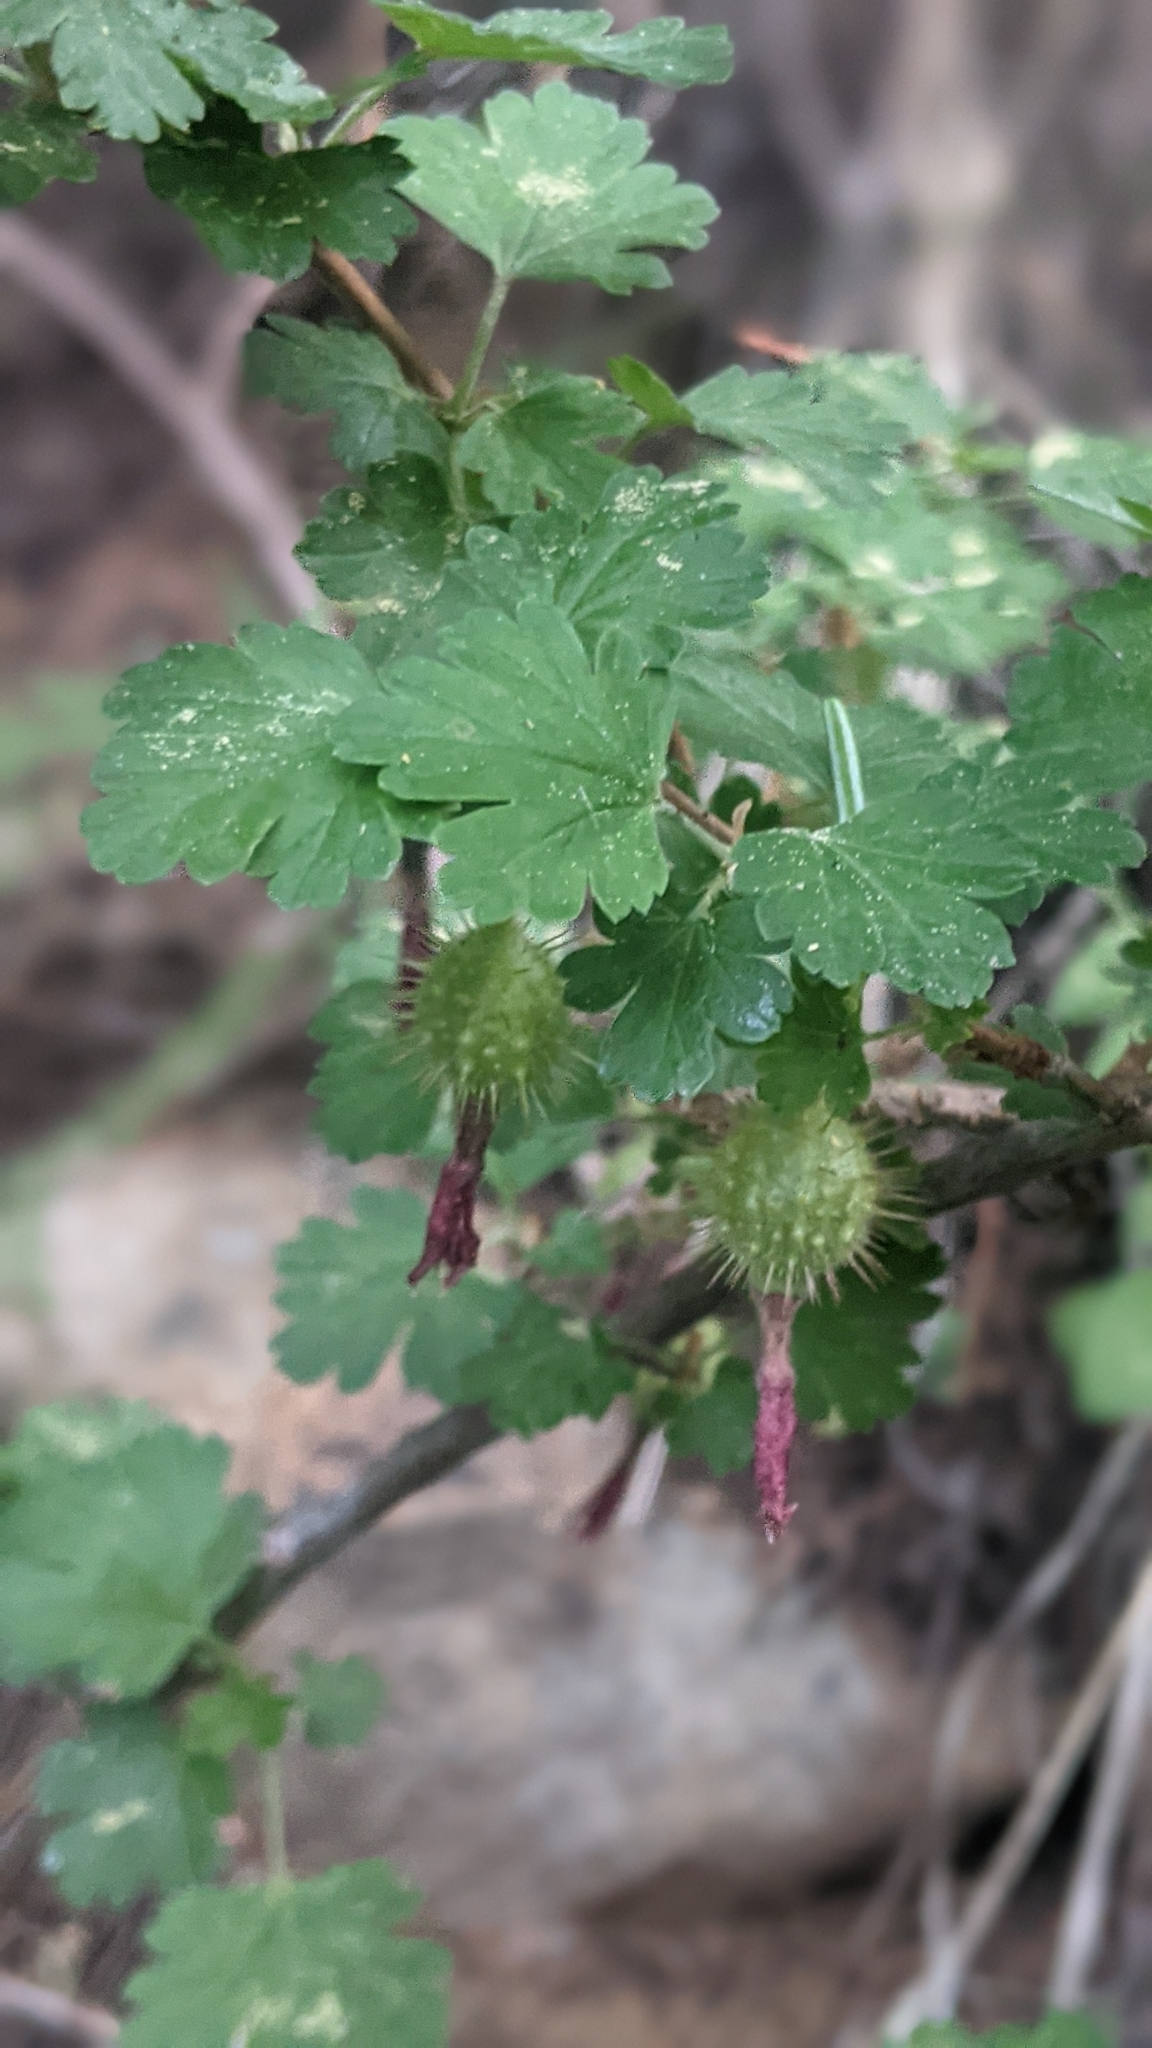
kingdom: Plantae
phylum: Tracheophyta
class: Magnoliopsida
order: Saxifragales
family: Grossulariaceae
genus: Ribes
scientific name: Ribes roezlii
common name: Sierra gooseberry
